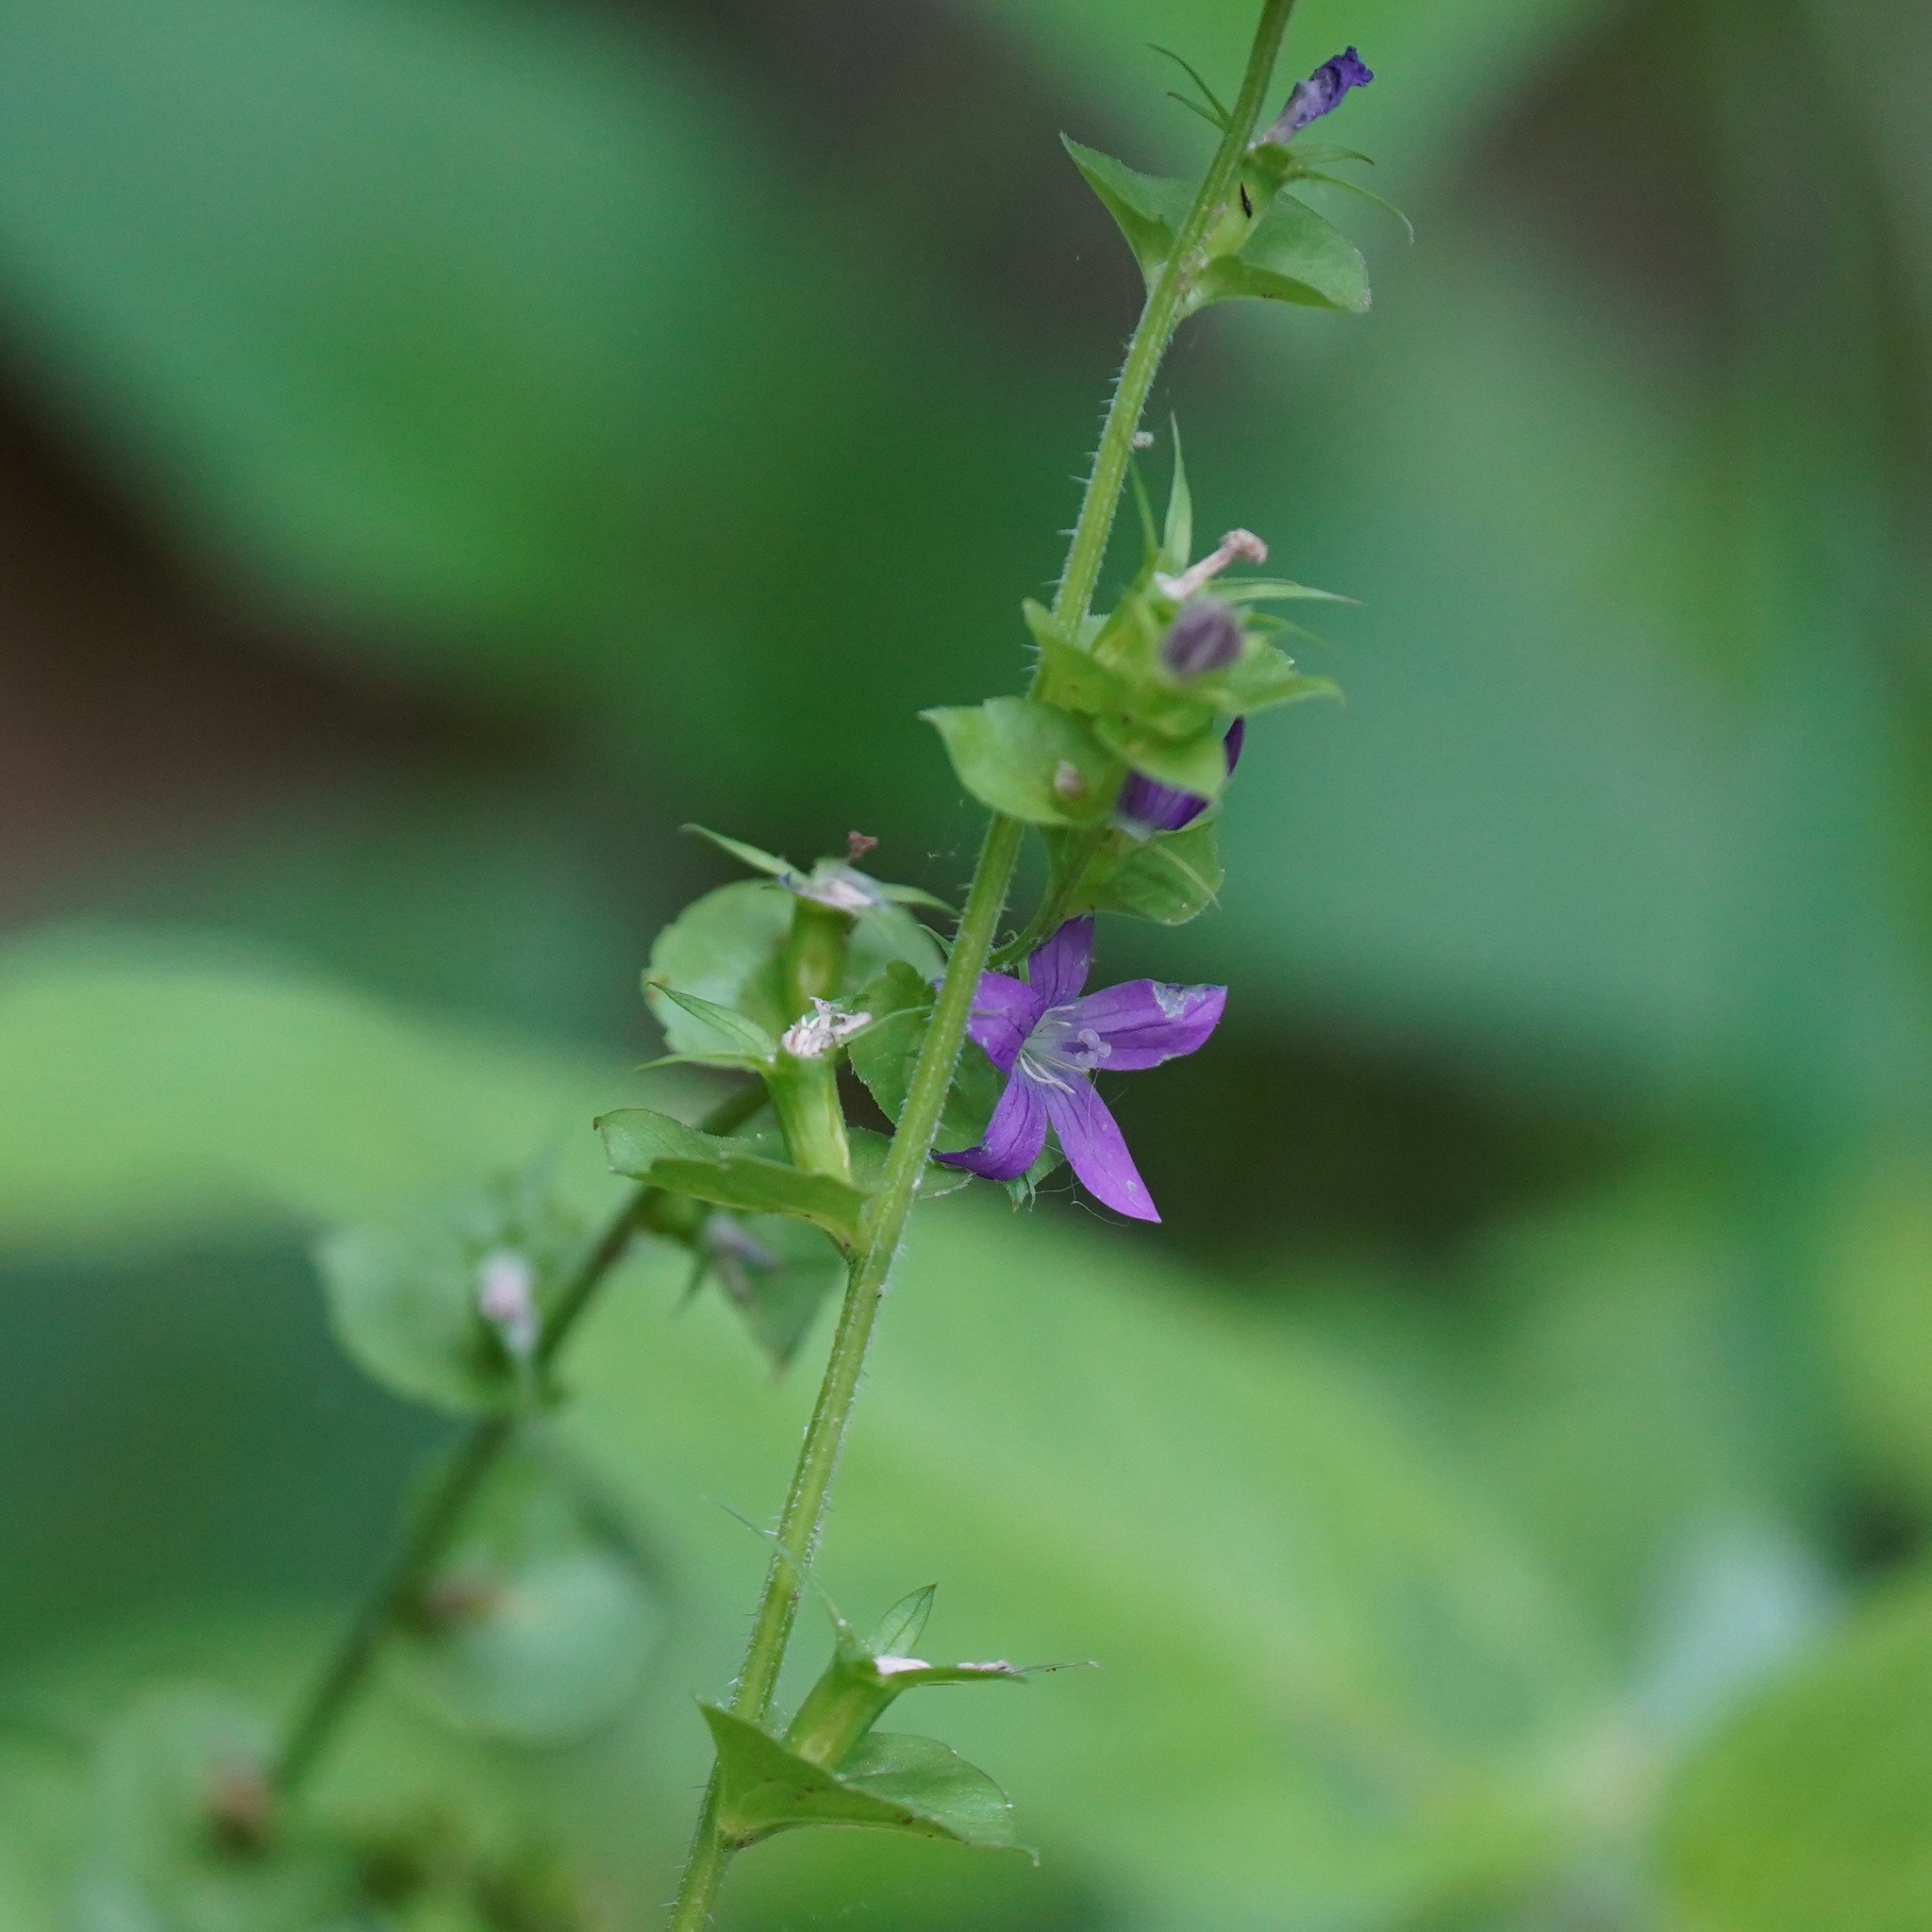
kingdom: Plantae
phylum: Tracheophyta
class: Magnoliopsida
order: Asterales
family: Campanulaceae
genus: Triodanis
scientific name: Triodanis perfoliata
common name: Clasping venus' looking-glass
